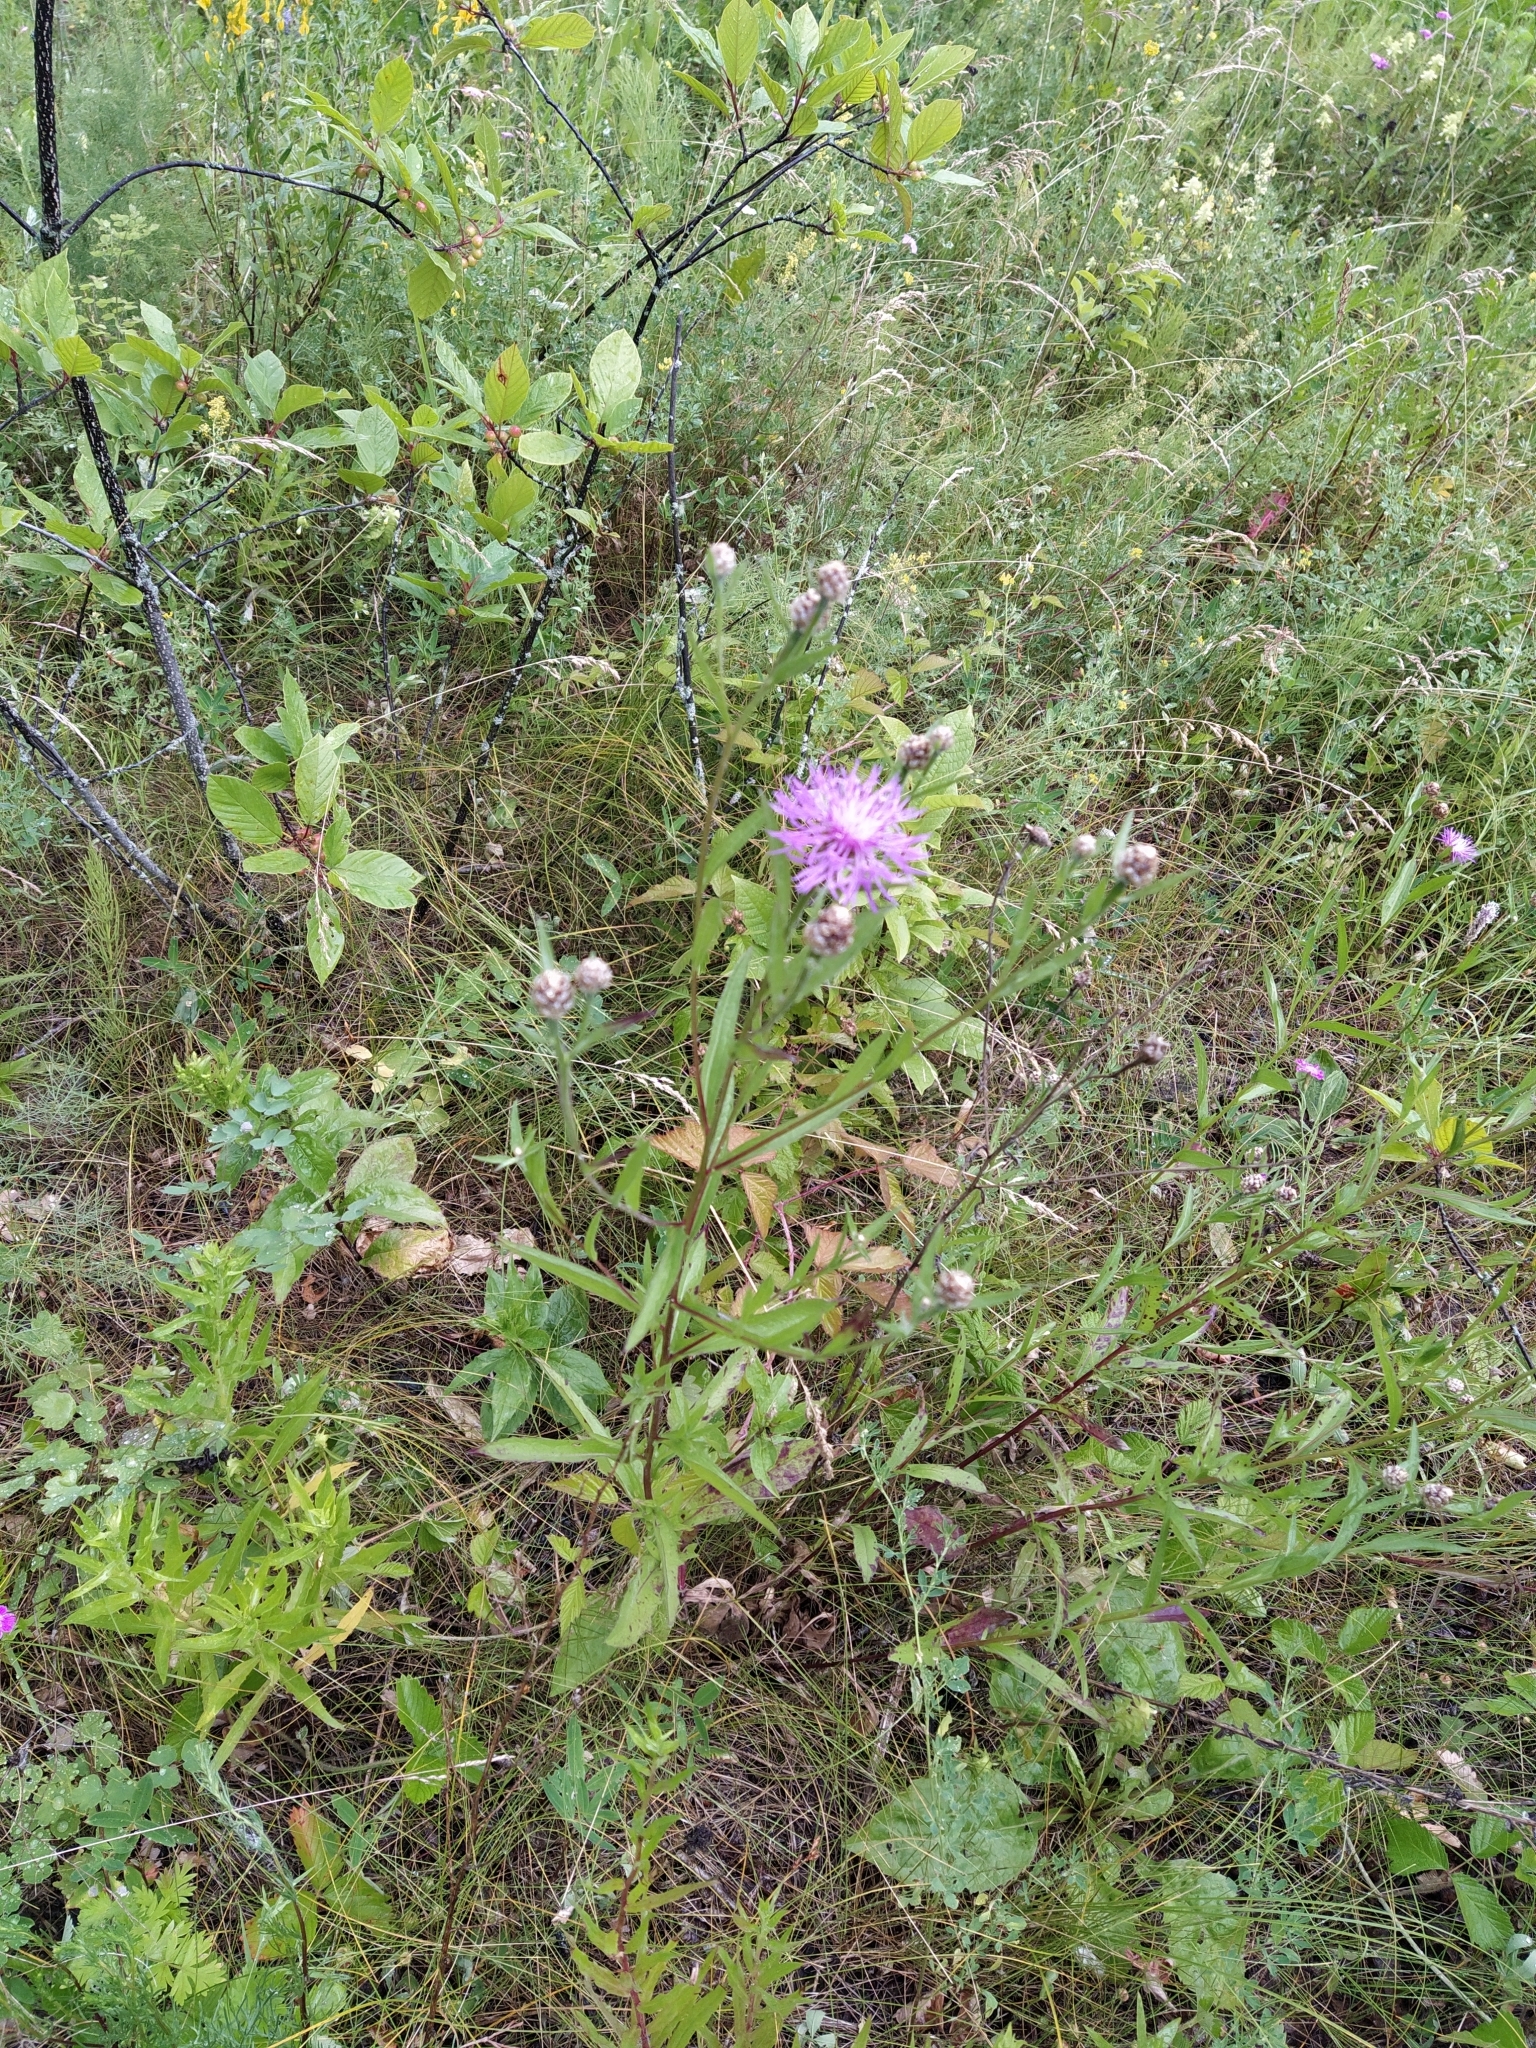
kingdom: Plantae
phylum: Tracheophyta
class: Magnoliopsida
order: Asterales
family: Asteraceae
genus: Centaurea
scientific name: Centaurea jacea
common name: Brown knapweed
